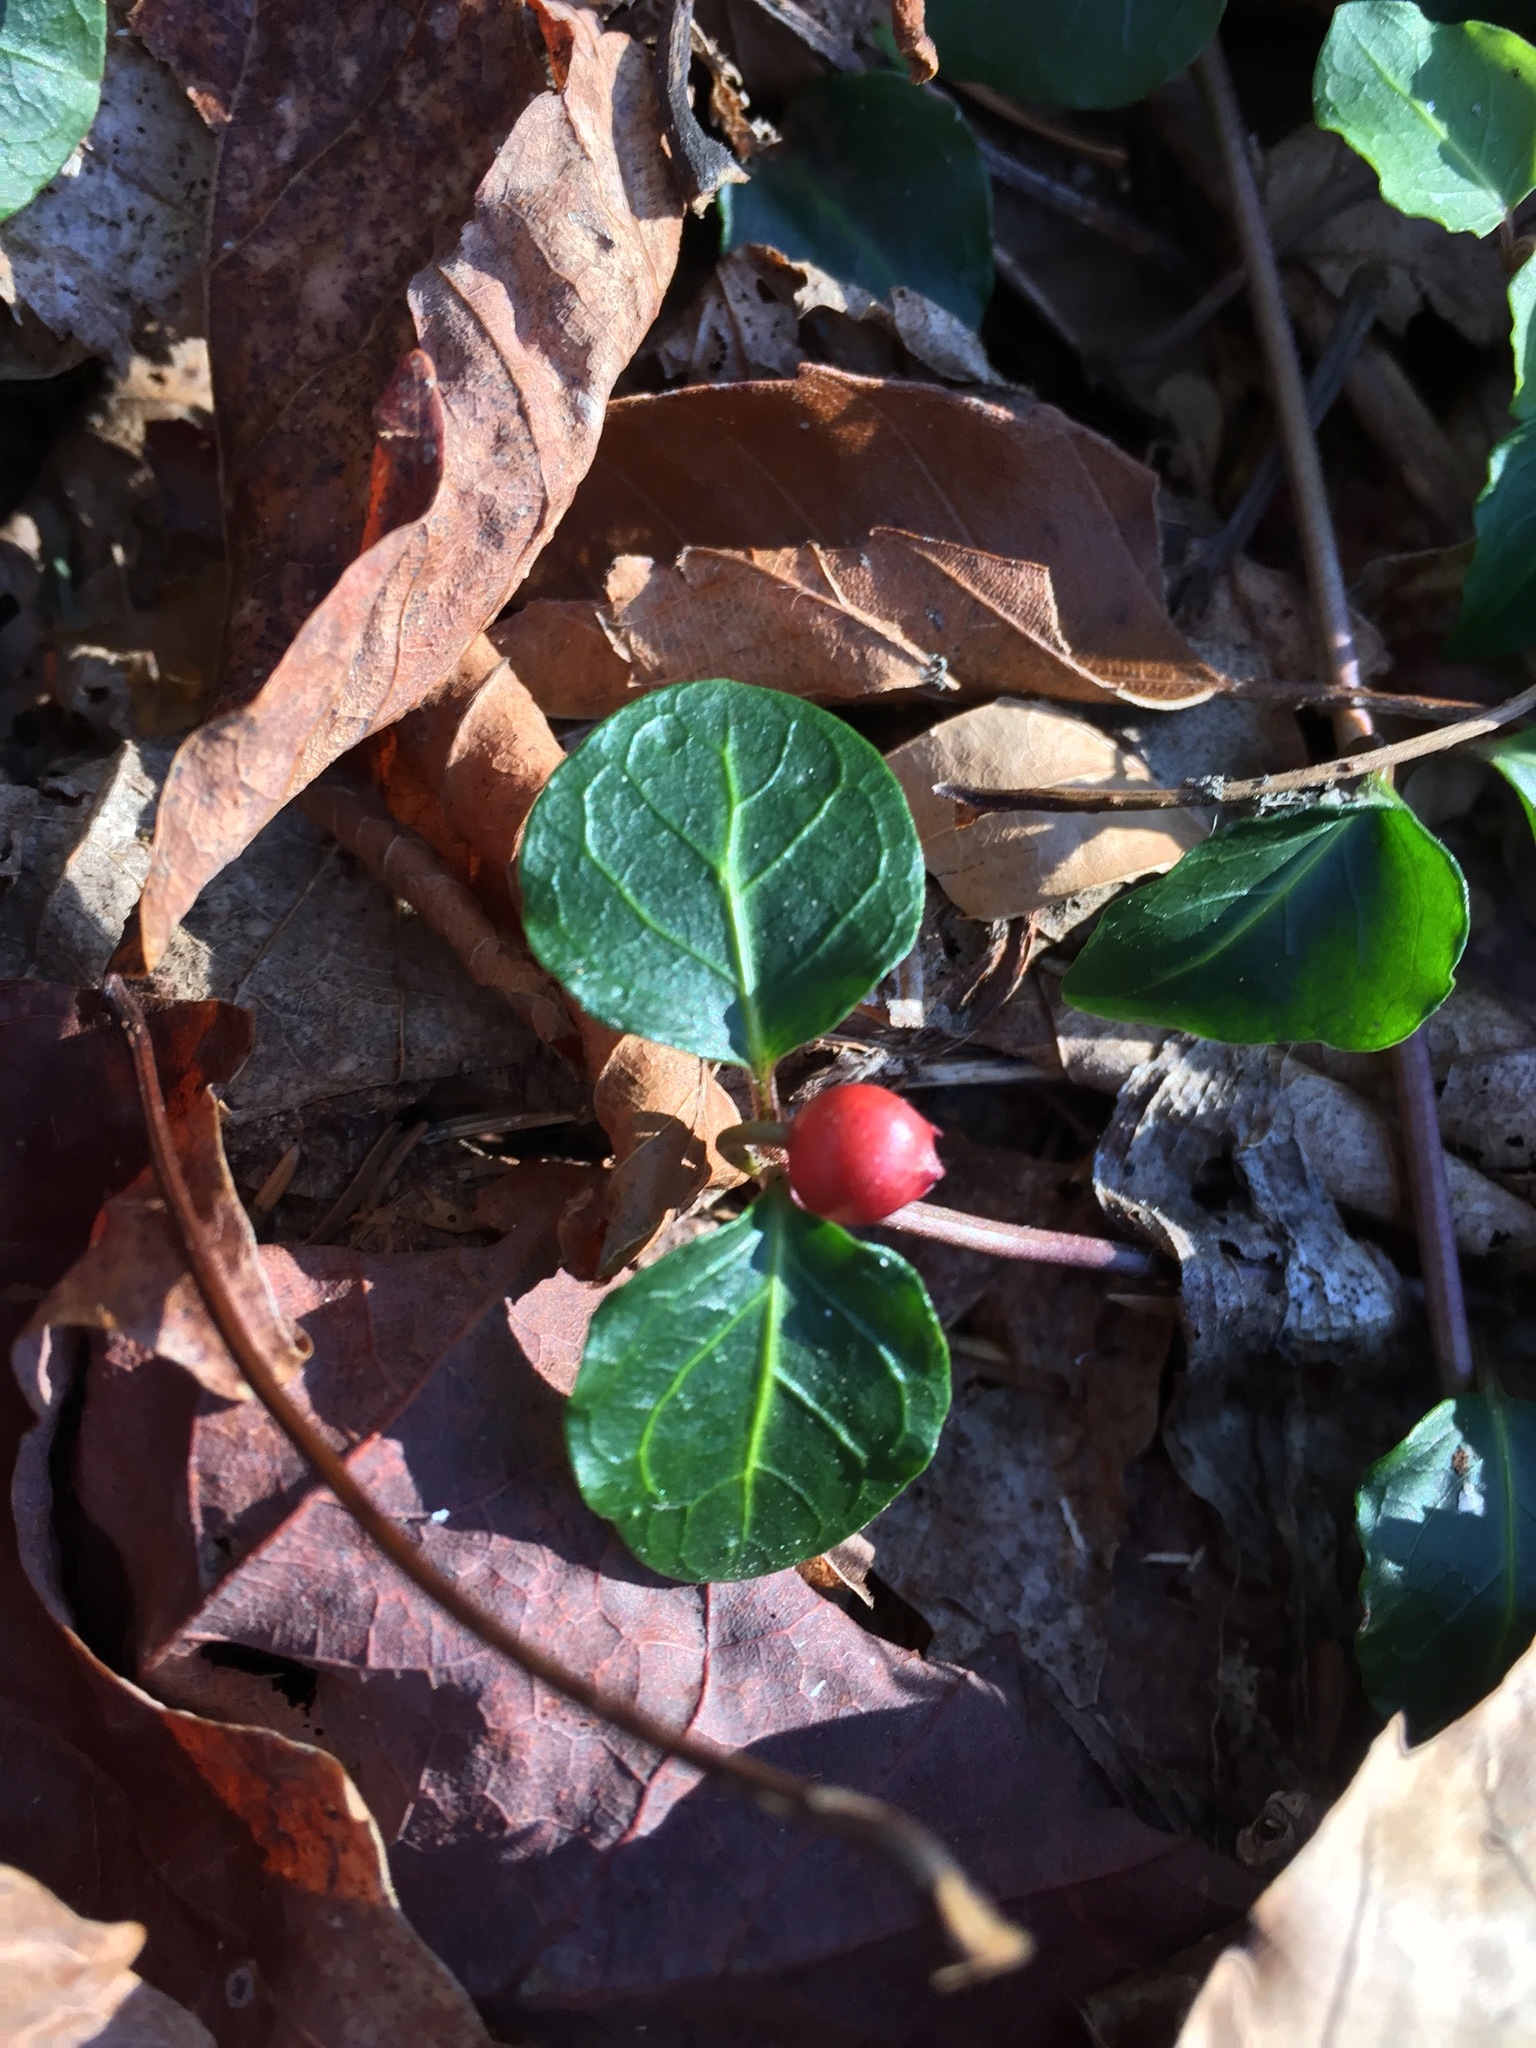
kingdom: Plantae
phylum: Tracheophyta
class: Magnoliopsida
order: Gentianales
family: Rubiaceae
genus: Mitchella
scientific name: Mitchella repens
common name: Partridge-berry
